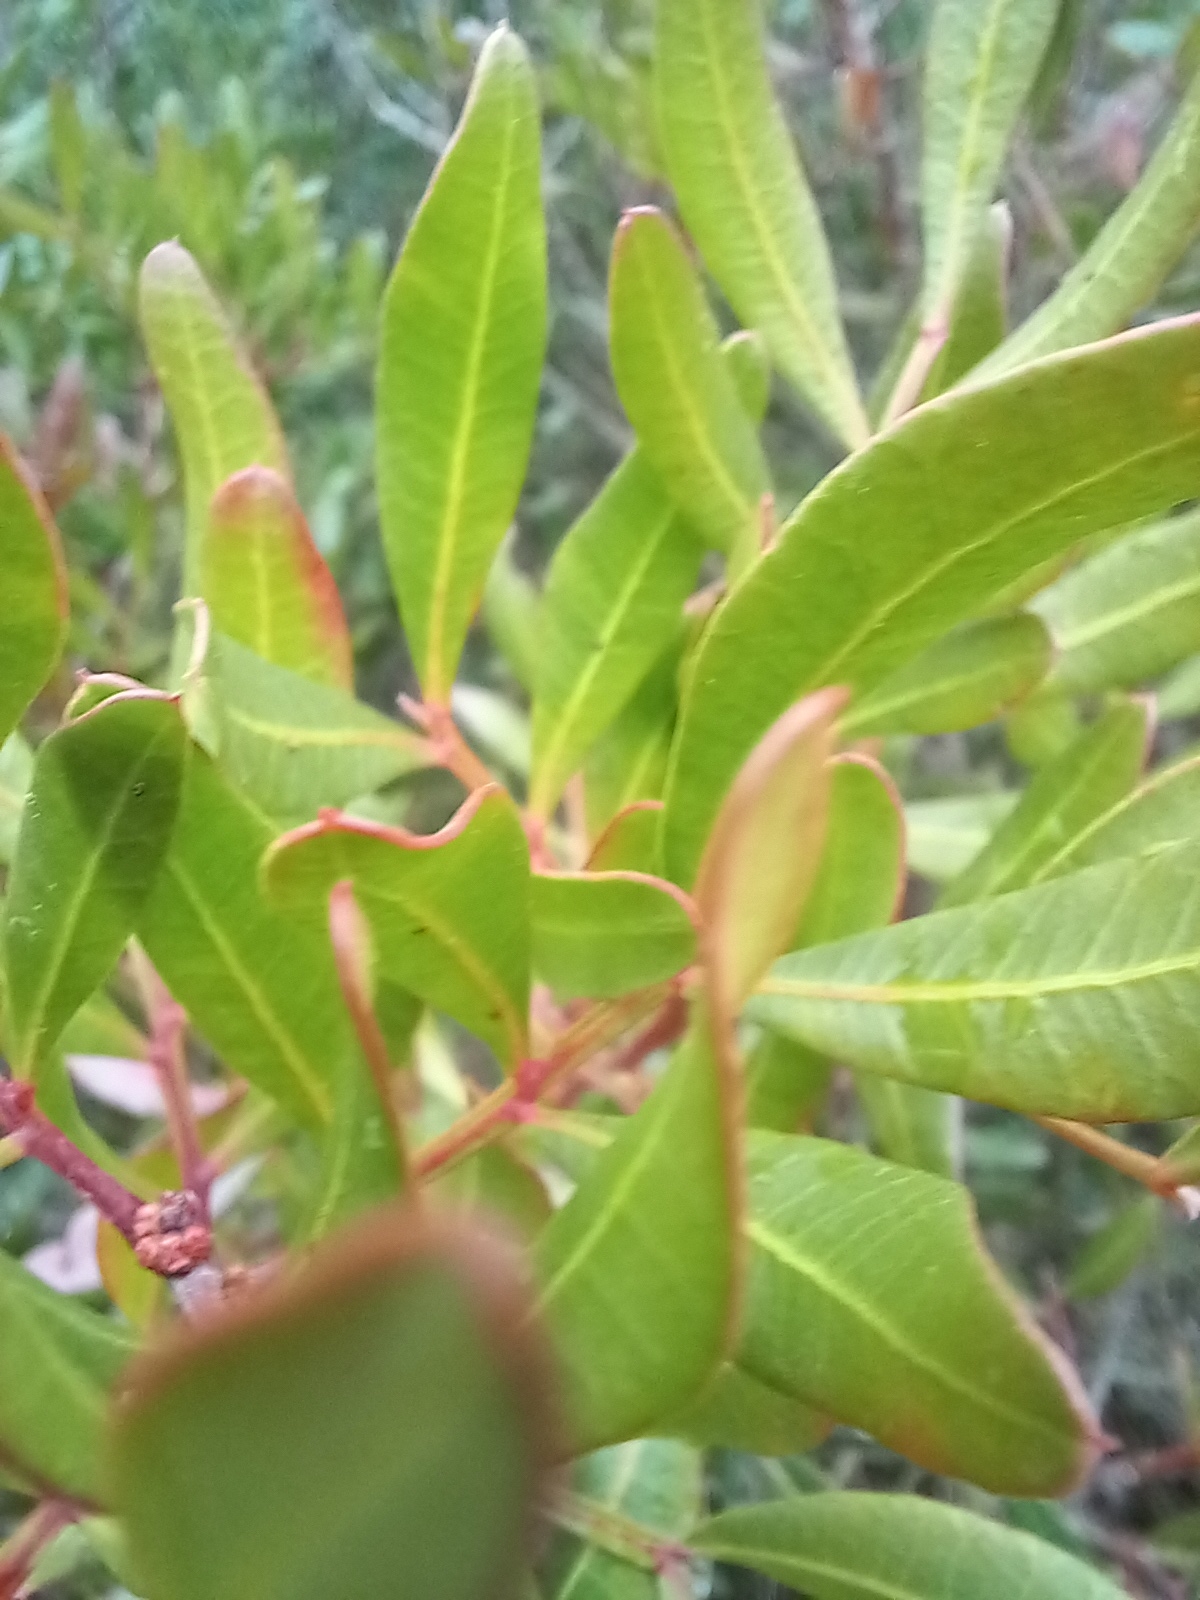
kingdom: Plantae
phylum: Tracheophyta
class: Magnoliopsida
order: Sapindales
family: Anacardiaceae
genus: Pistacia
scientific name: Pistacia lentiscus
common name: Lentisk
